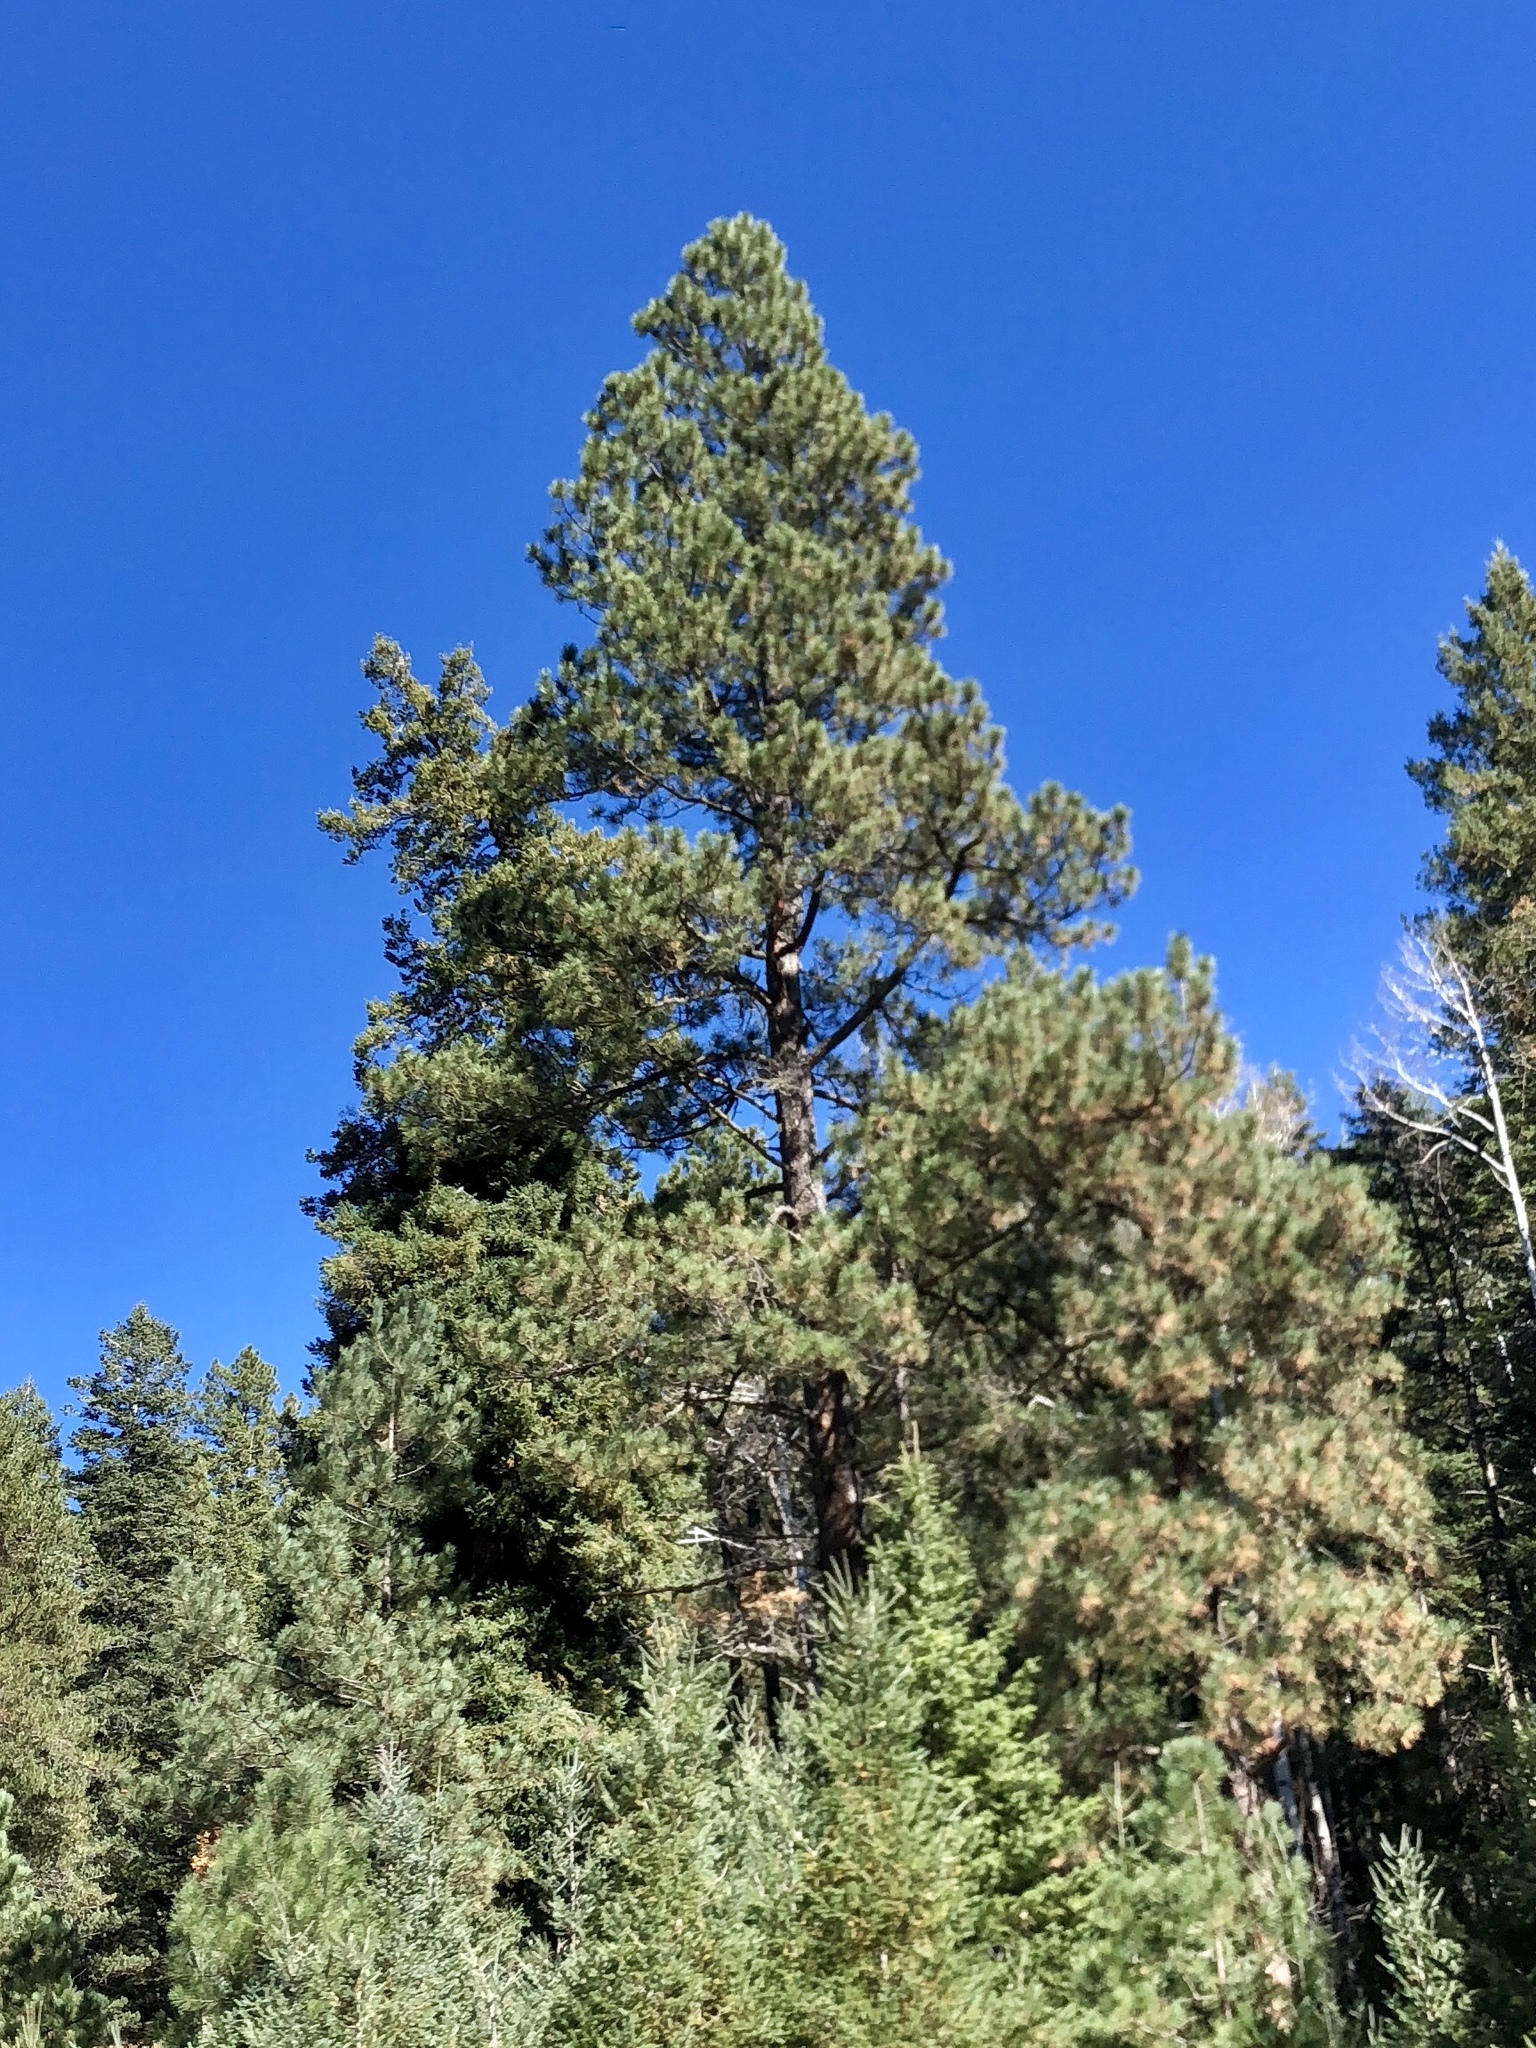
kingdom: Plantae
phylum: Tracheophyta
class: Pinopsida
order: Pinales
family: Pinaceae
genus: Pinus
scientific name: Pinus ponderosa
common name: Western yellow-pine
